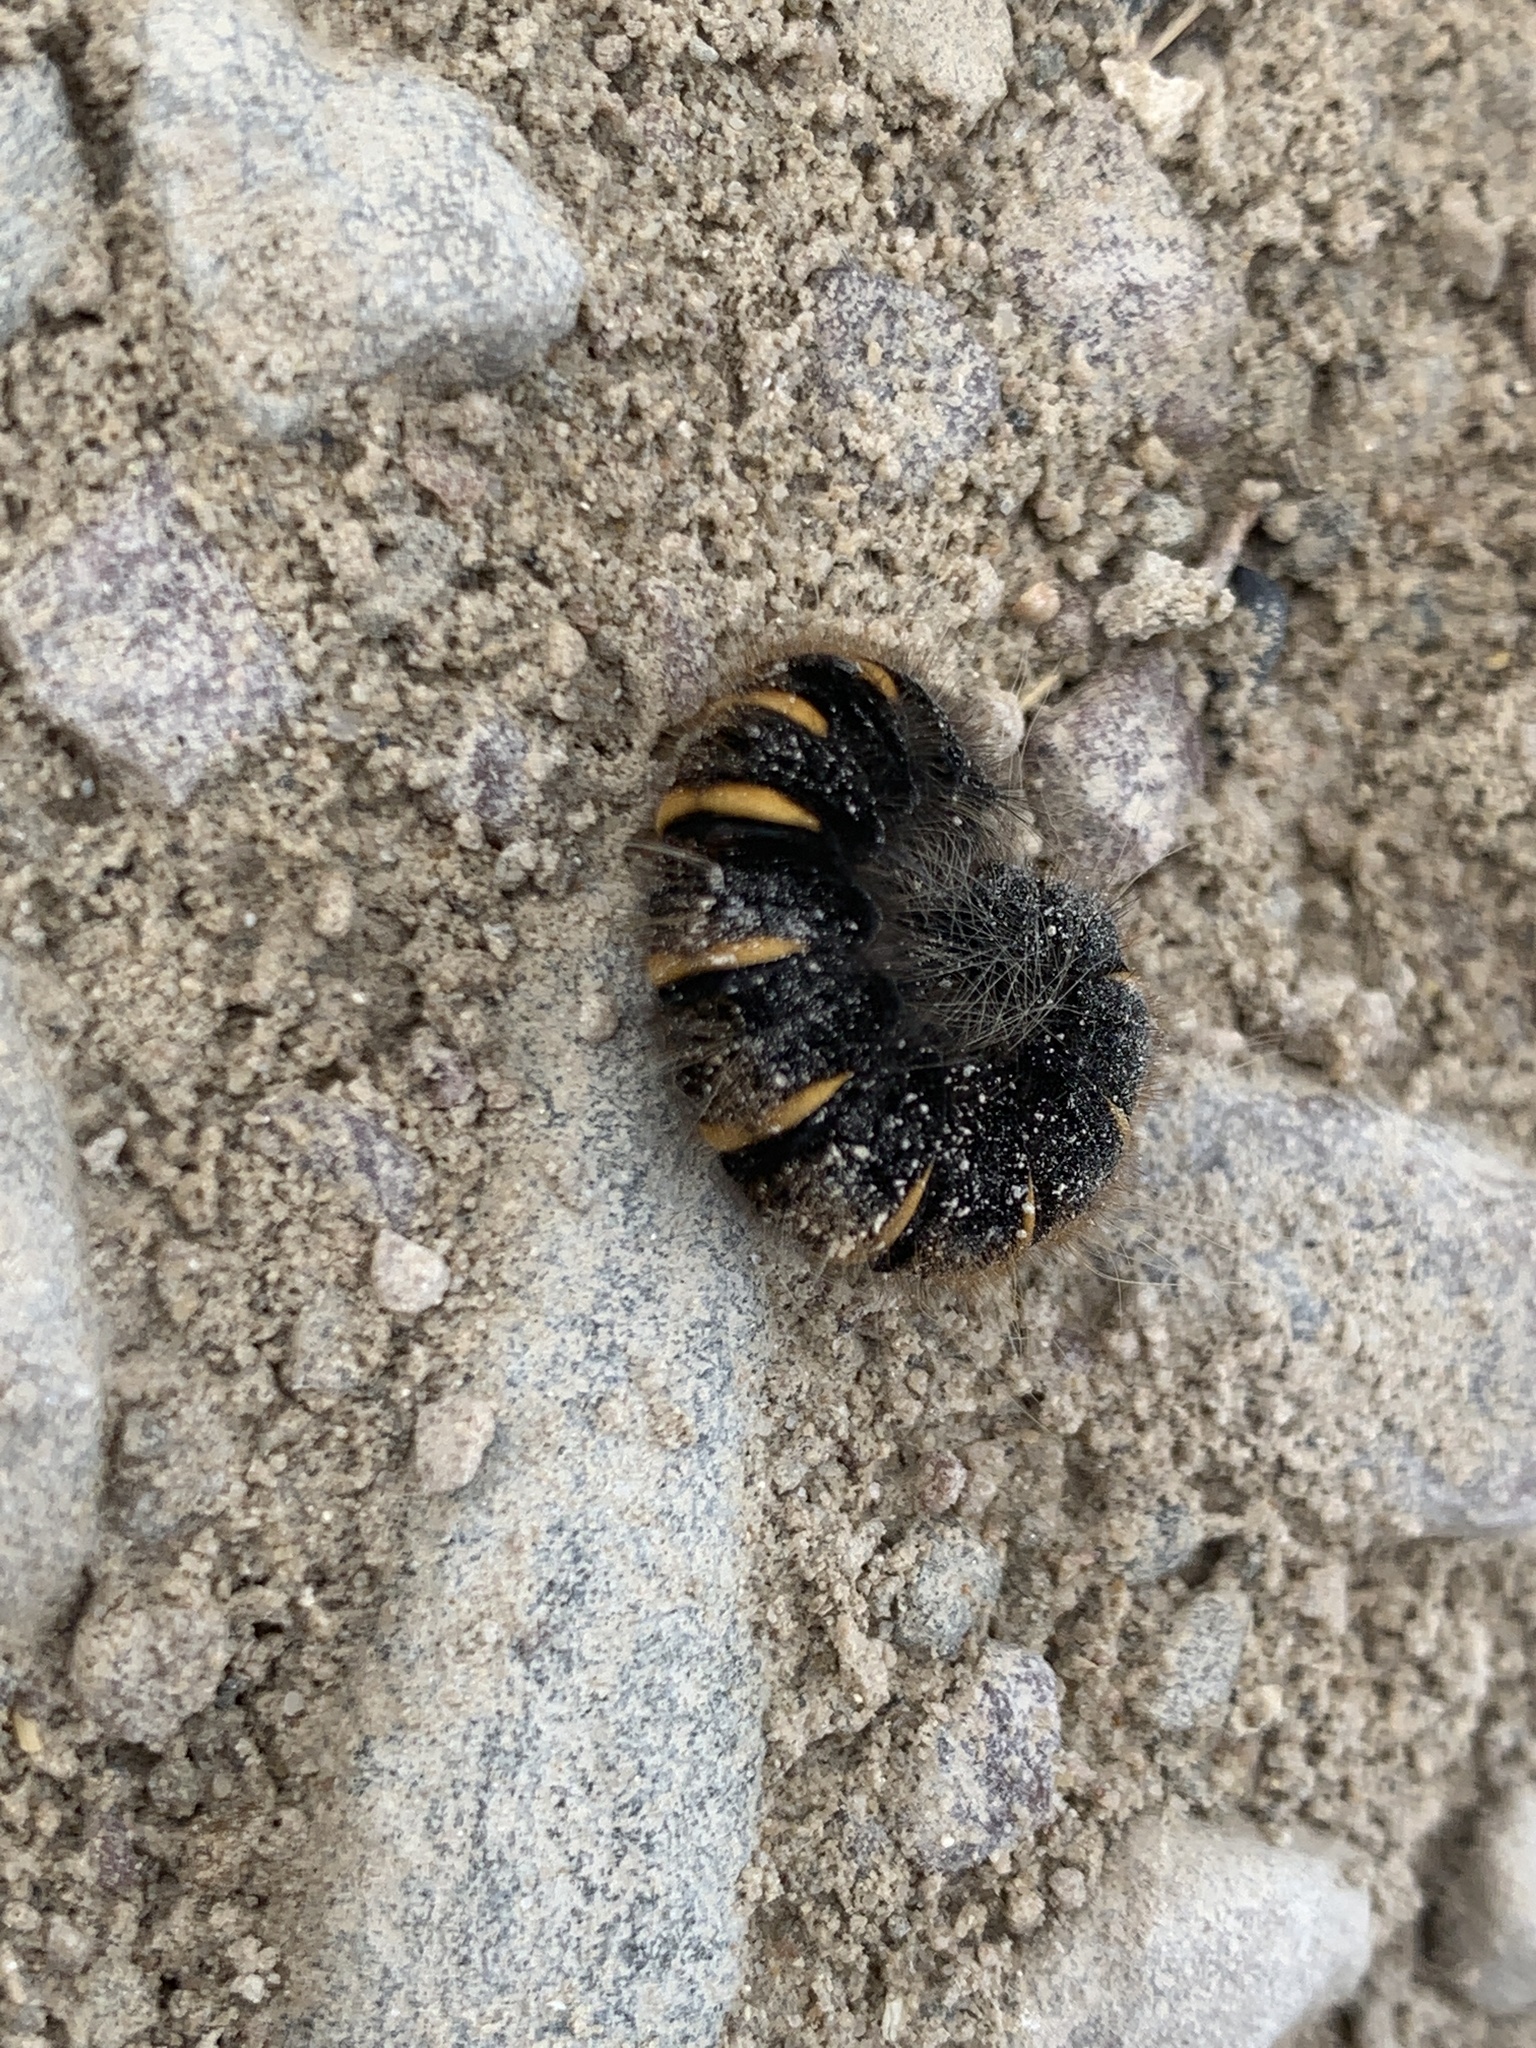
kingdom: Animalia
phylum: Arthropoda
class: Insecta
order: Lepidoptera
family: Lasiocampidae
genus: Macrothylacia
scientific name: Macrothylacia rubi
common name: Fox moth
